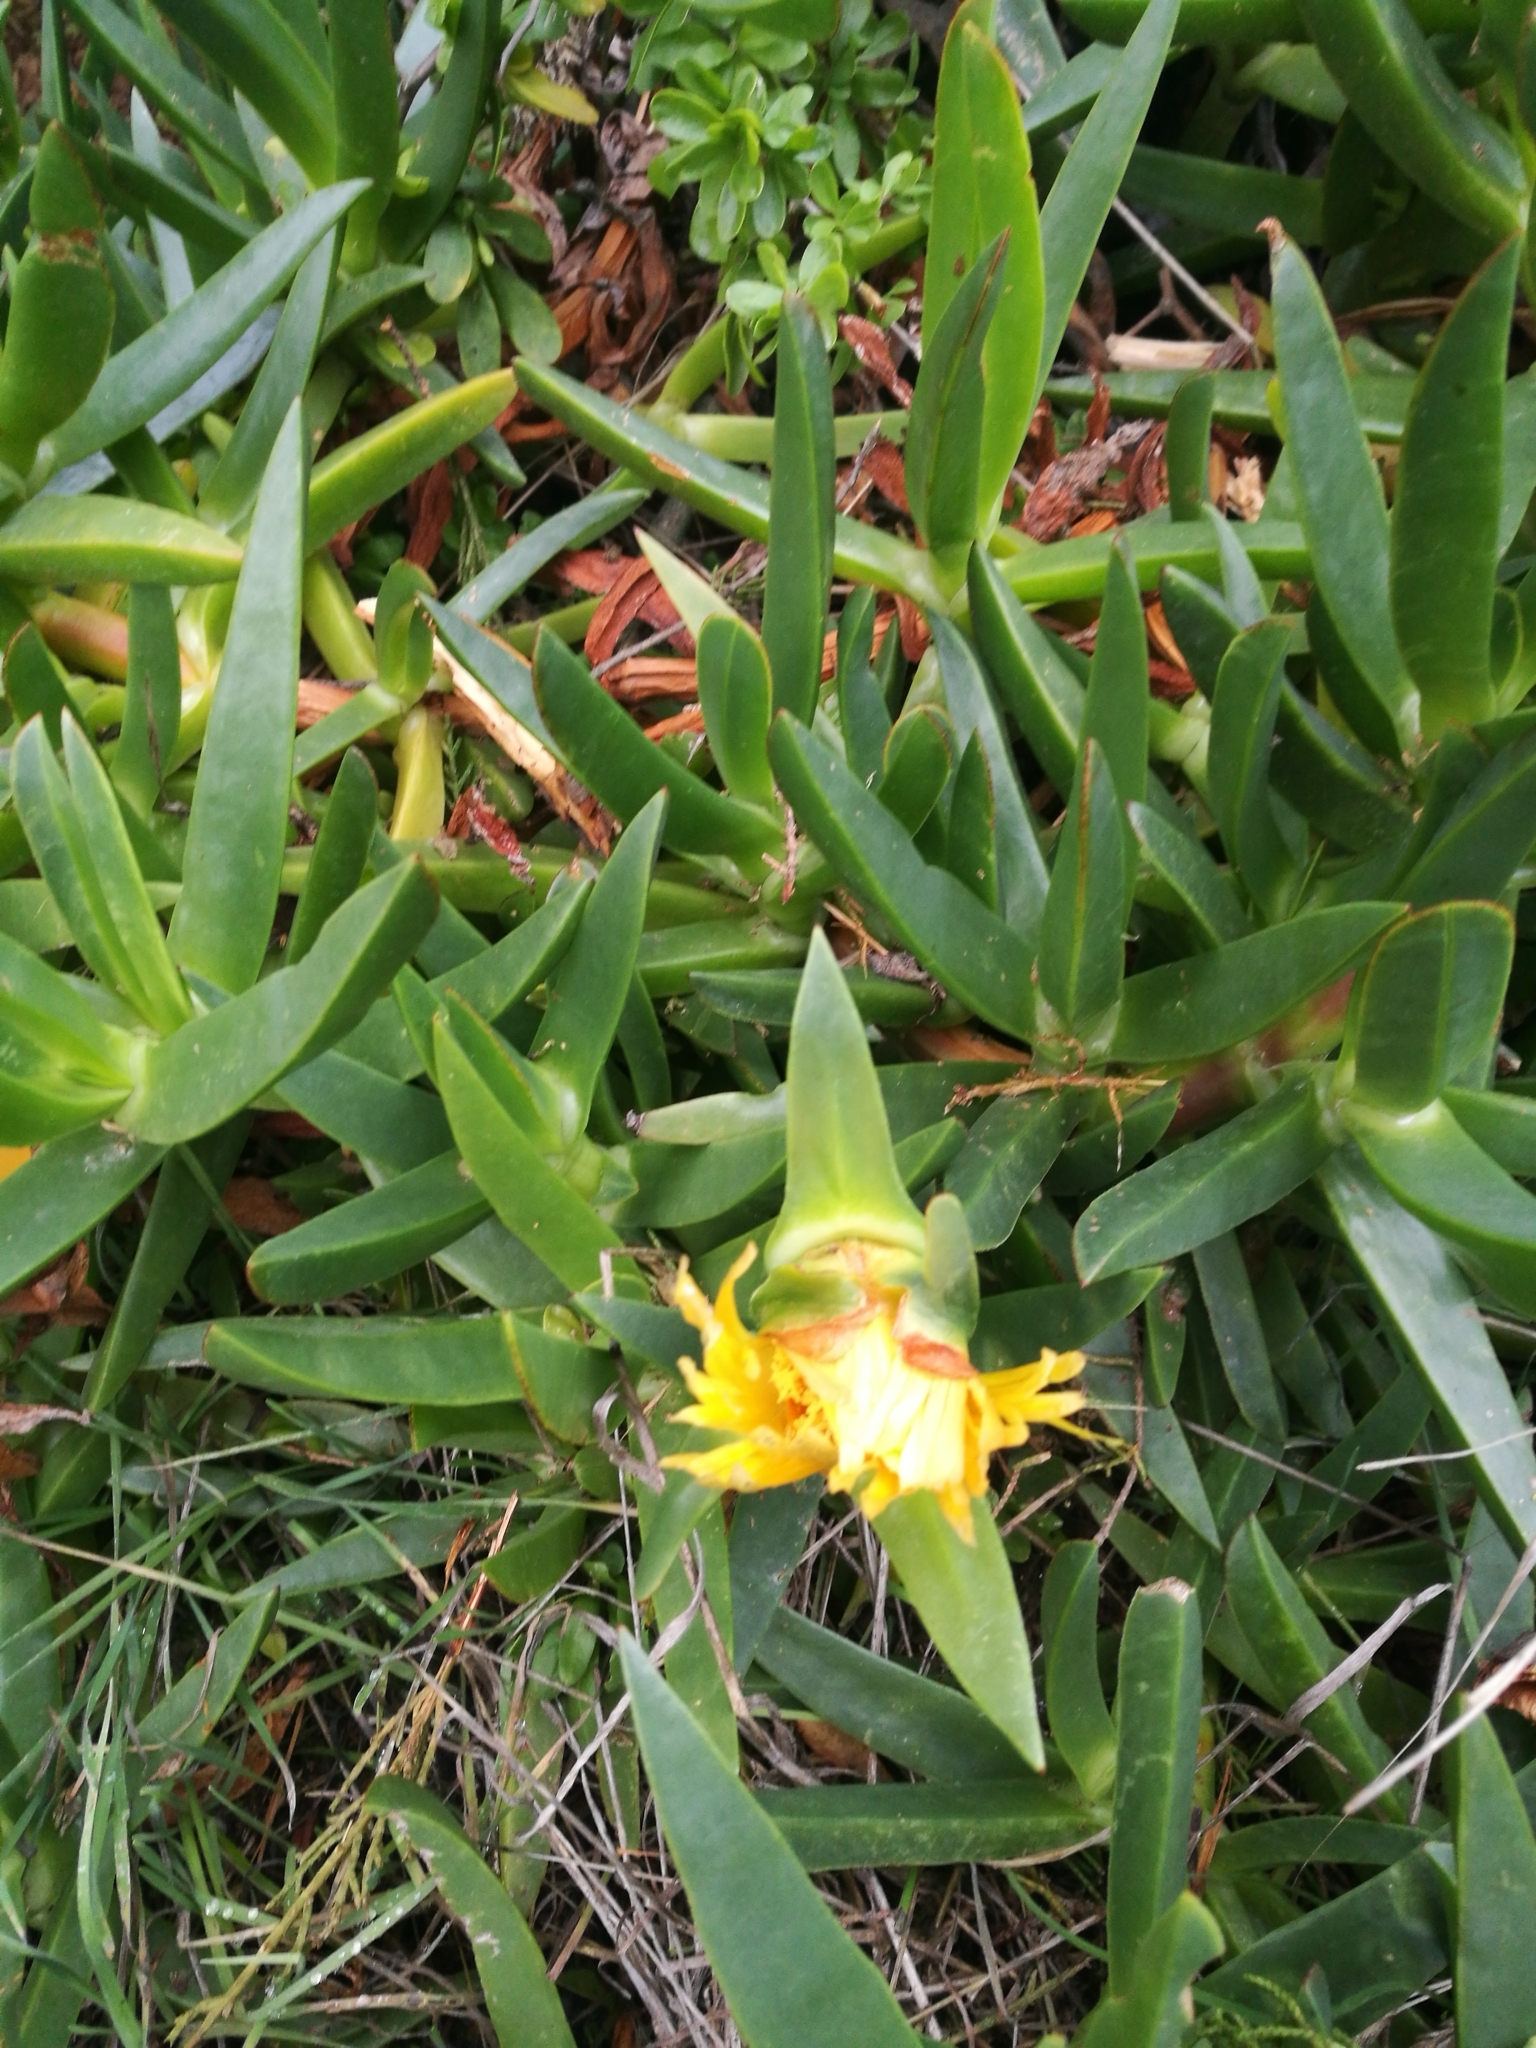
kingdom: Plantae
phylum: Tracheophyta
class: Magnoliopsida
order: Caryophyllales
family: Aizoaceae
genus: Carpobrotus
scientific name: Carpobrotus edulis
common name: Hottentot-fig
